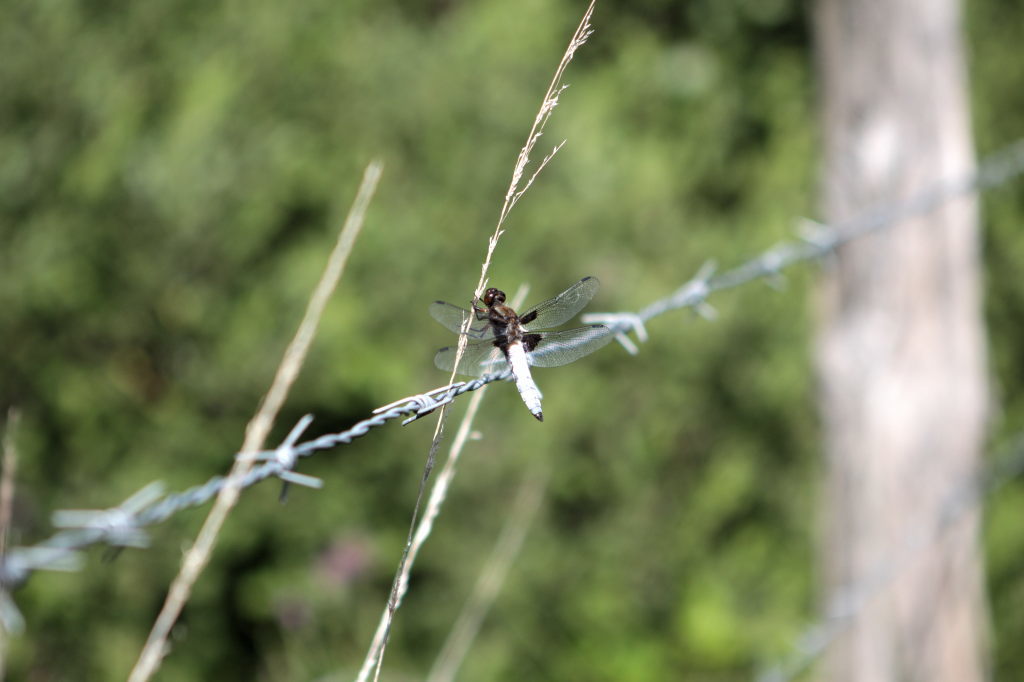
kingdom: Animalia
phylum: Arthropoda
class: Insecta
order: Odonata
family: Libellulidae
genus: Libellula
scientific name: Libellula depressa
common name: Broad-bodied chaser
